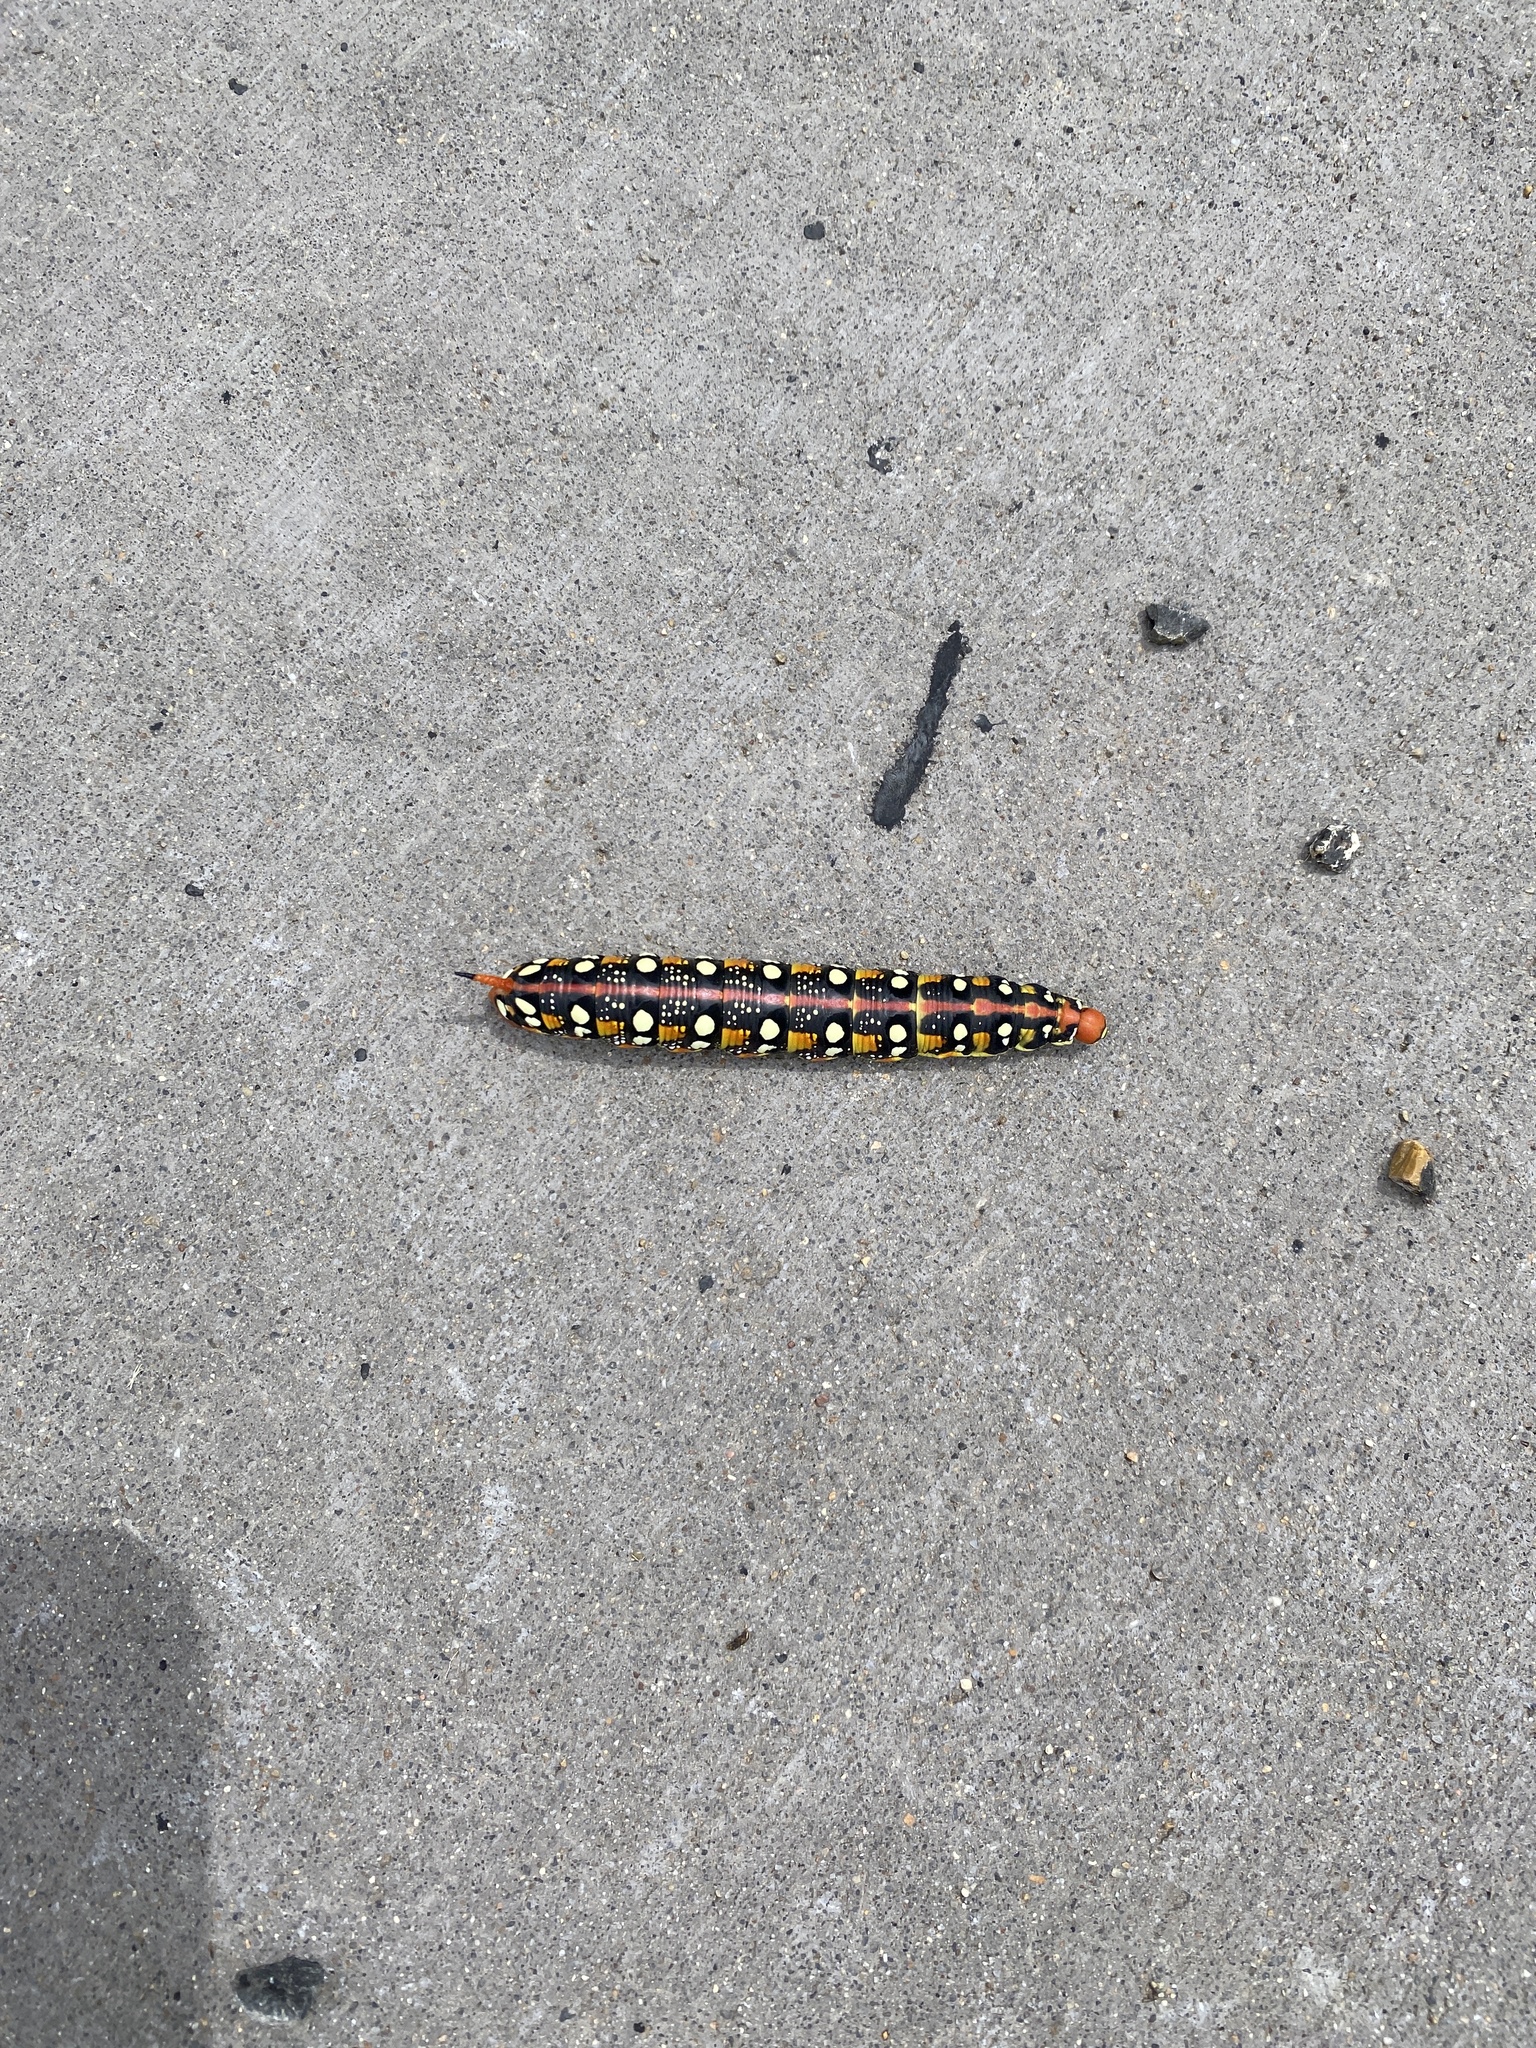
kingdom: Animalia
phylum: Arthropoda
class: Insecta
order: Lepidoptera
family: Sphingidae
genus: Hyles
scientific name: Hyles euphorbiae
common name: Spurge hawk-moth
